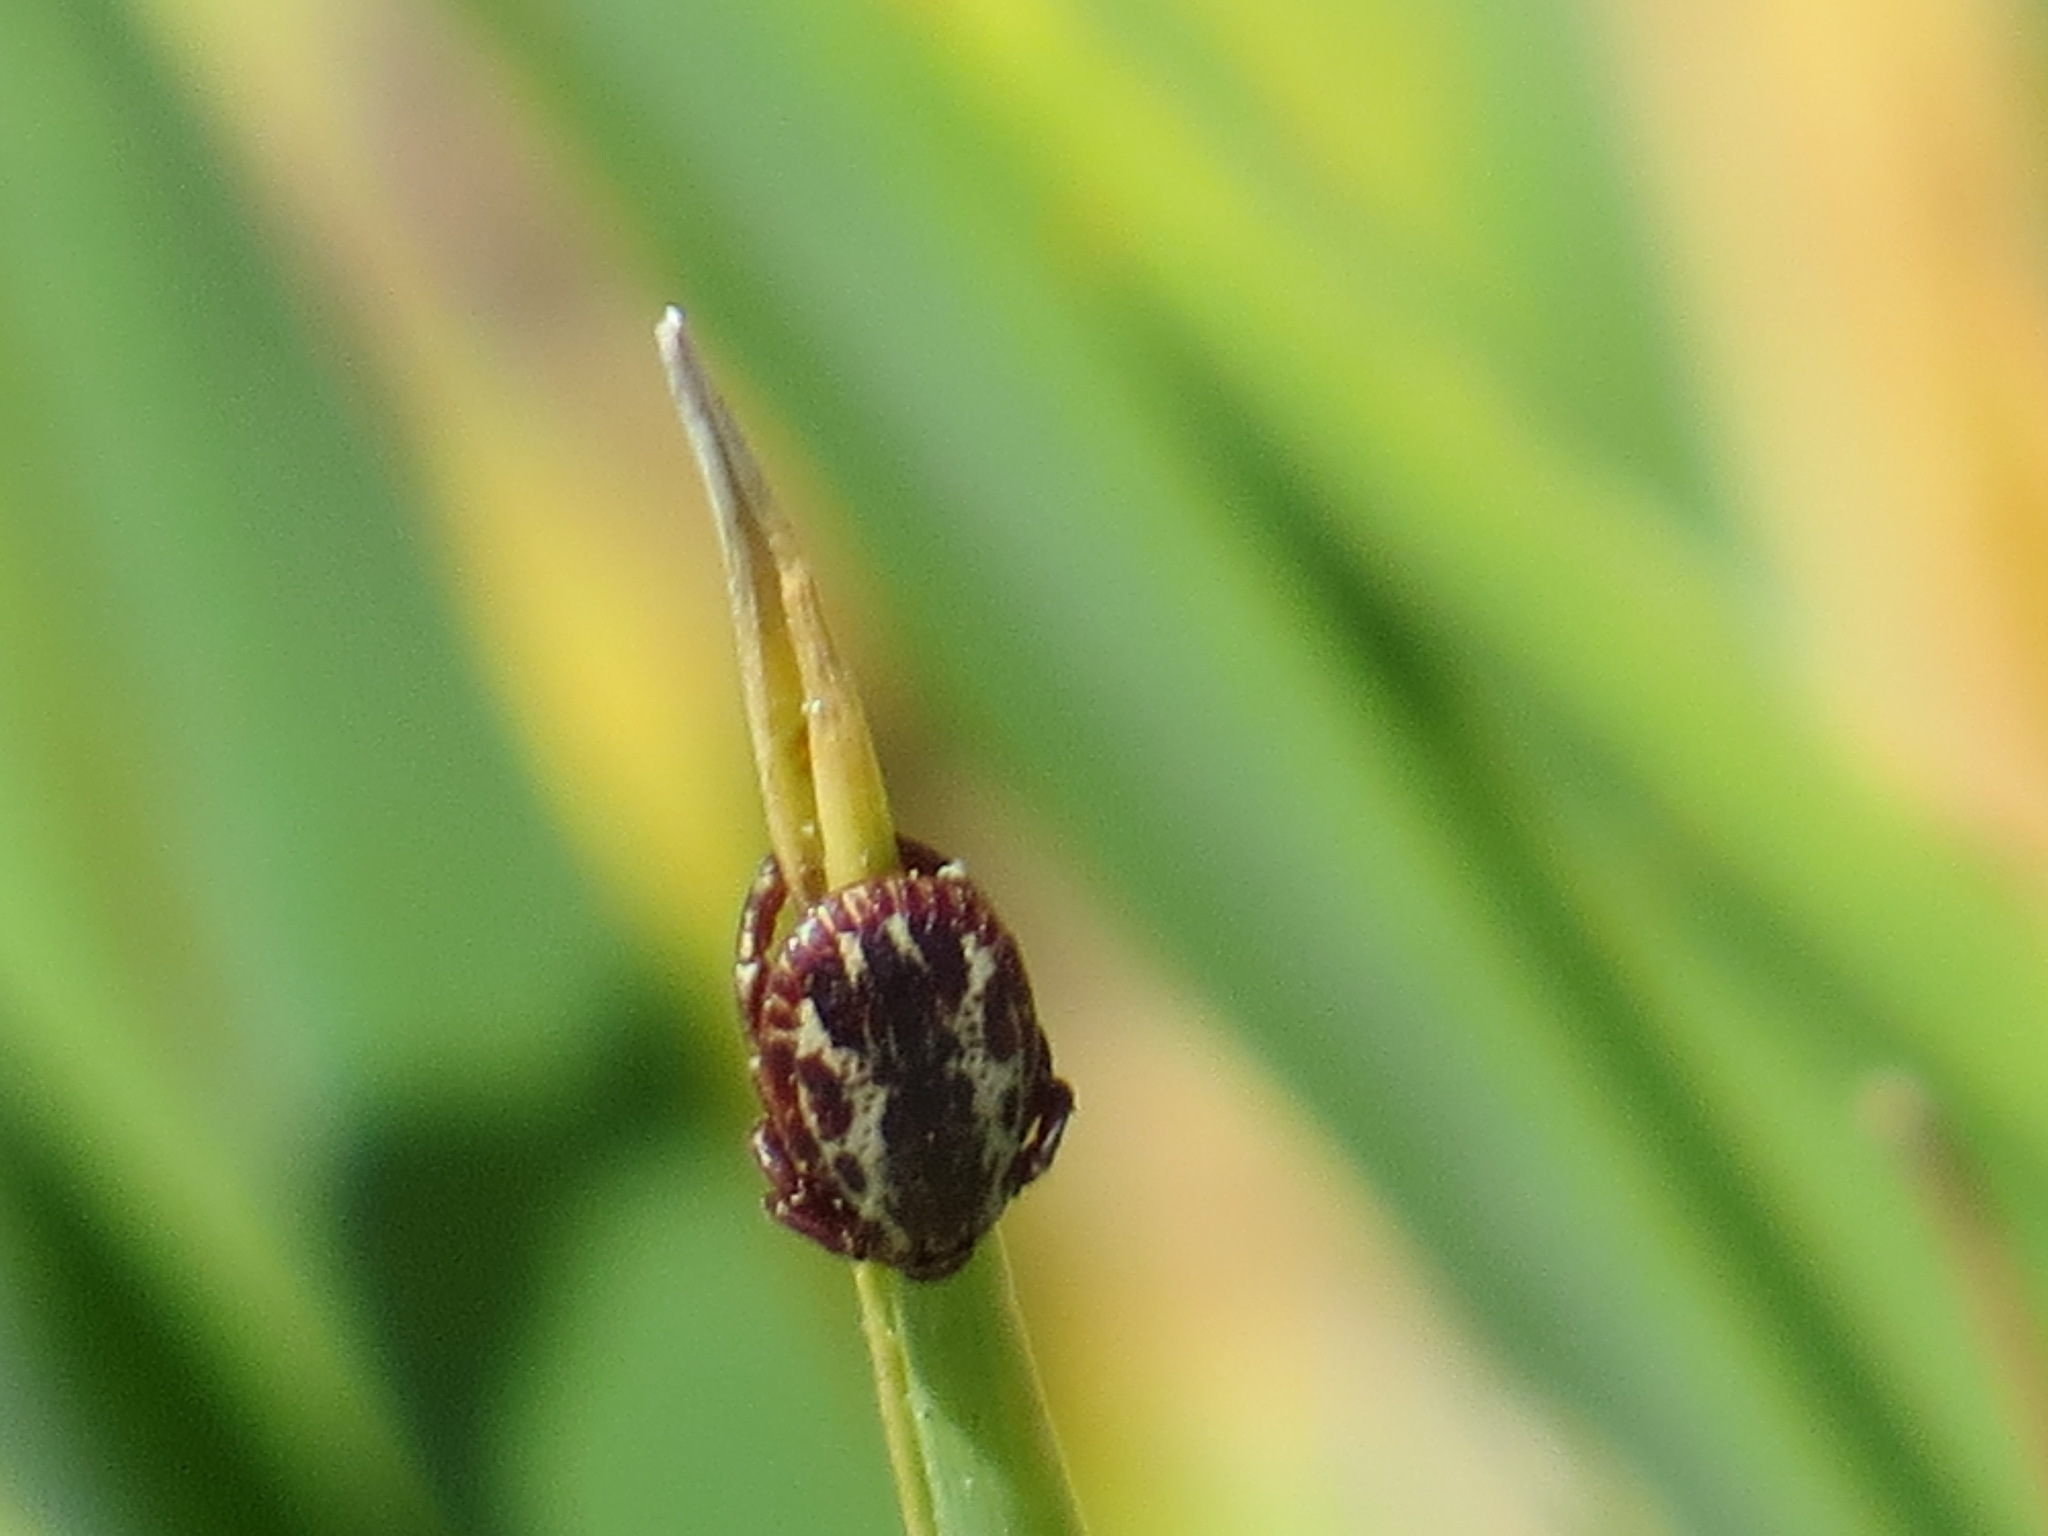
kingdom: Animalia
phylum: Arthropoda
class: Arachnida
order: Ixodida
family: Ixodidae
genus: Dermacentor
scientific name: Dermacentor variabilis
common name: American dog tick
